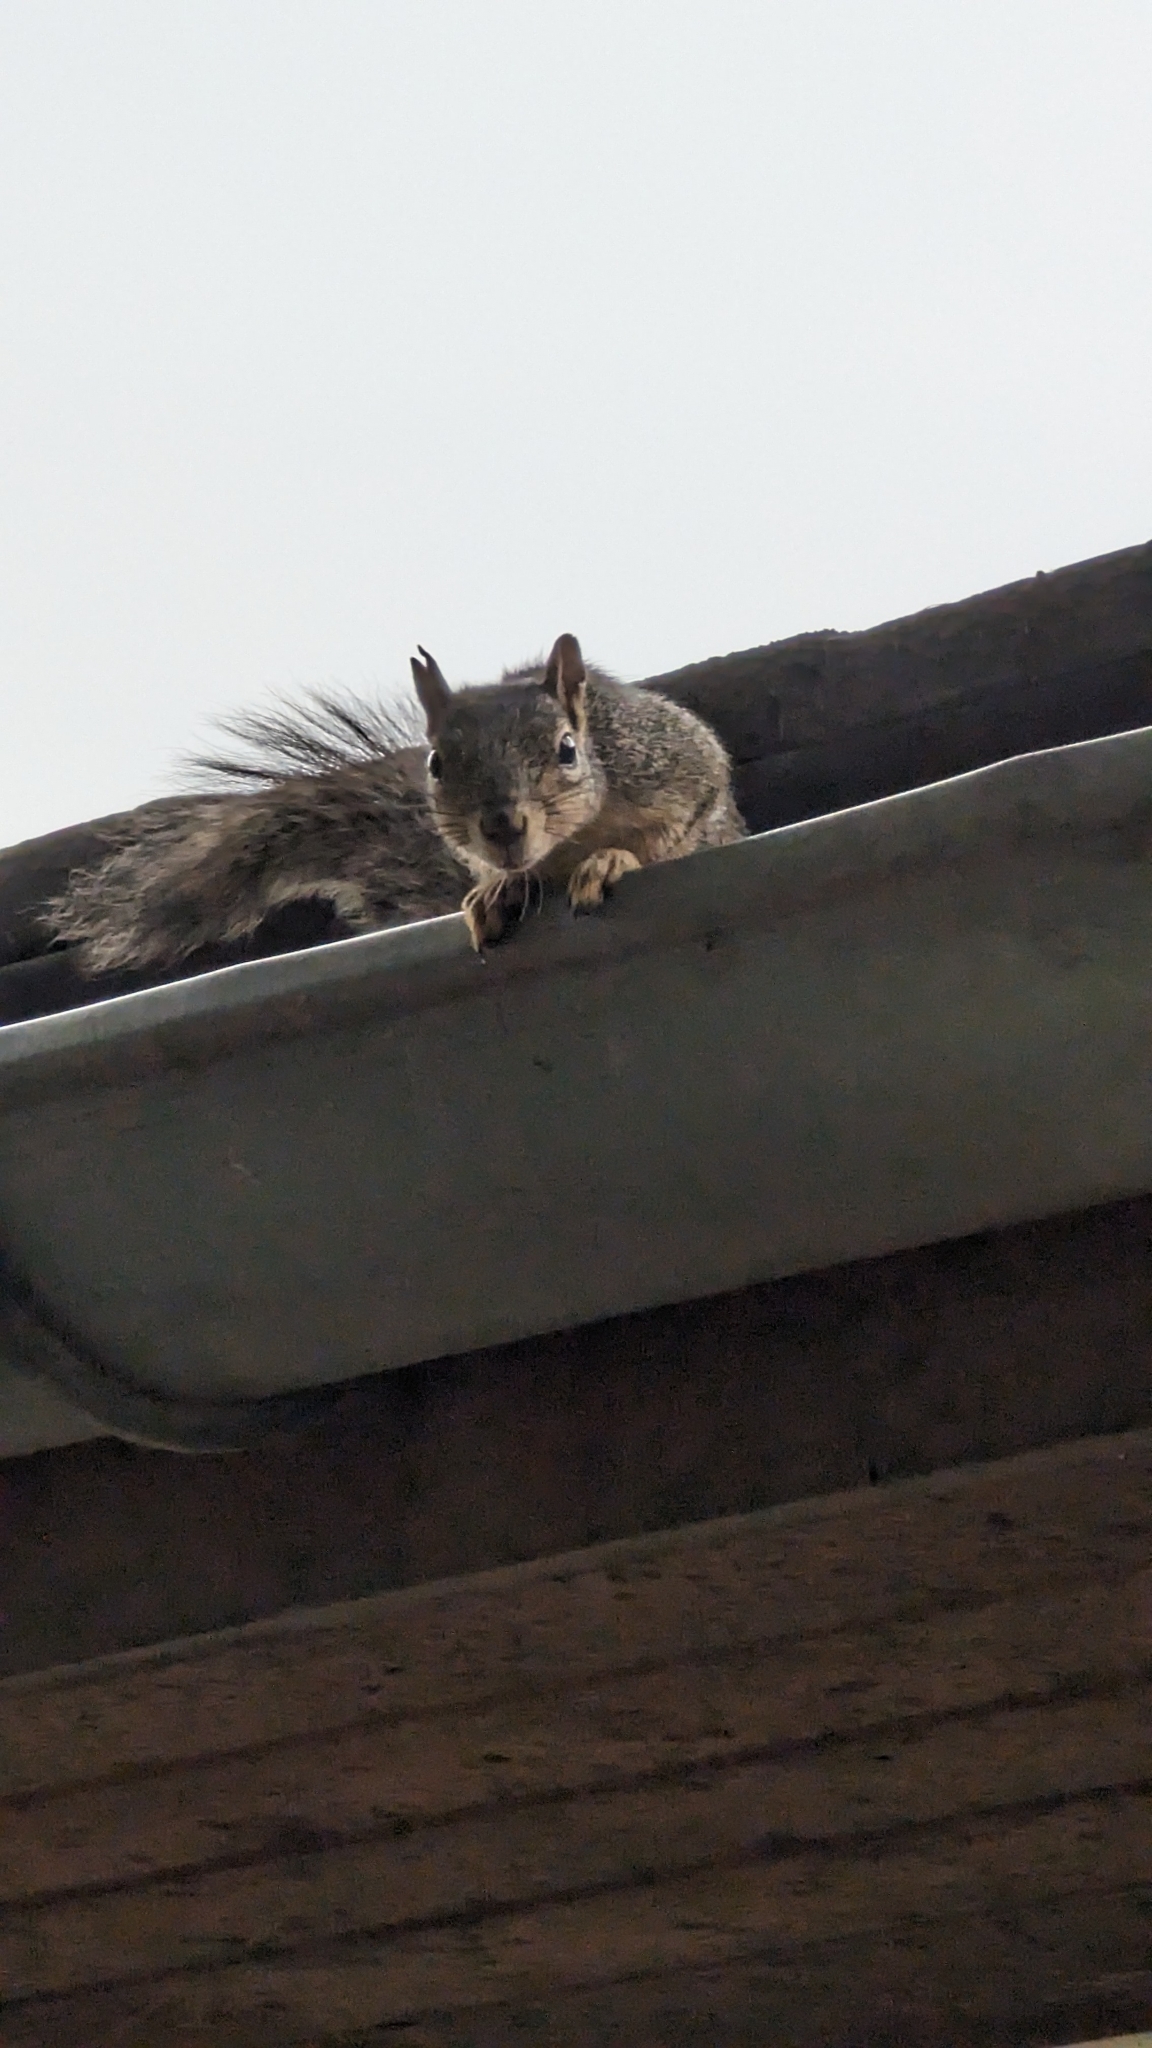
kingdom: Animalia
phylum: Chordata
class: Mammalia
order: Rodentia
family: Sciuridae
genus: Sciurus
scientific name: Sciurus niger
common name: Fox squirrel
